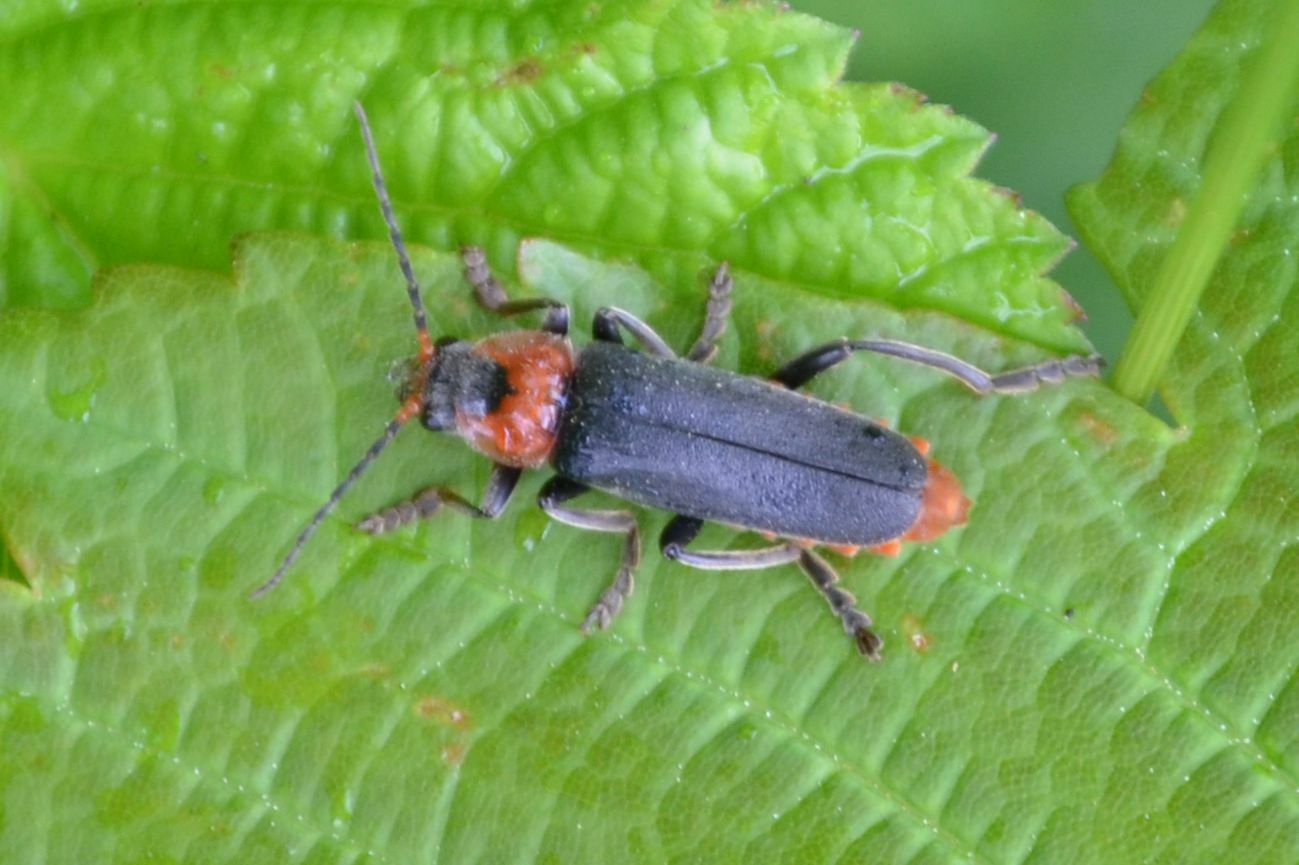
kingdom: Animalia
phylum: Arthropoda
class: Insecta
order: Coleoptera
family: Cantharidae
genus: Cantharis
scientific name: Cantharis fusca
